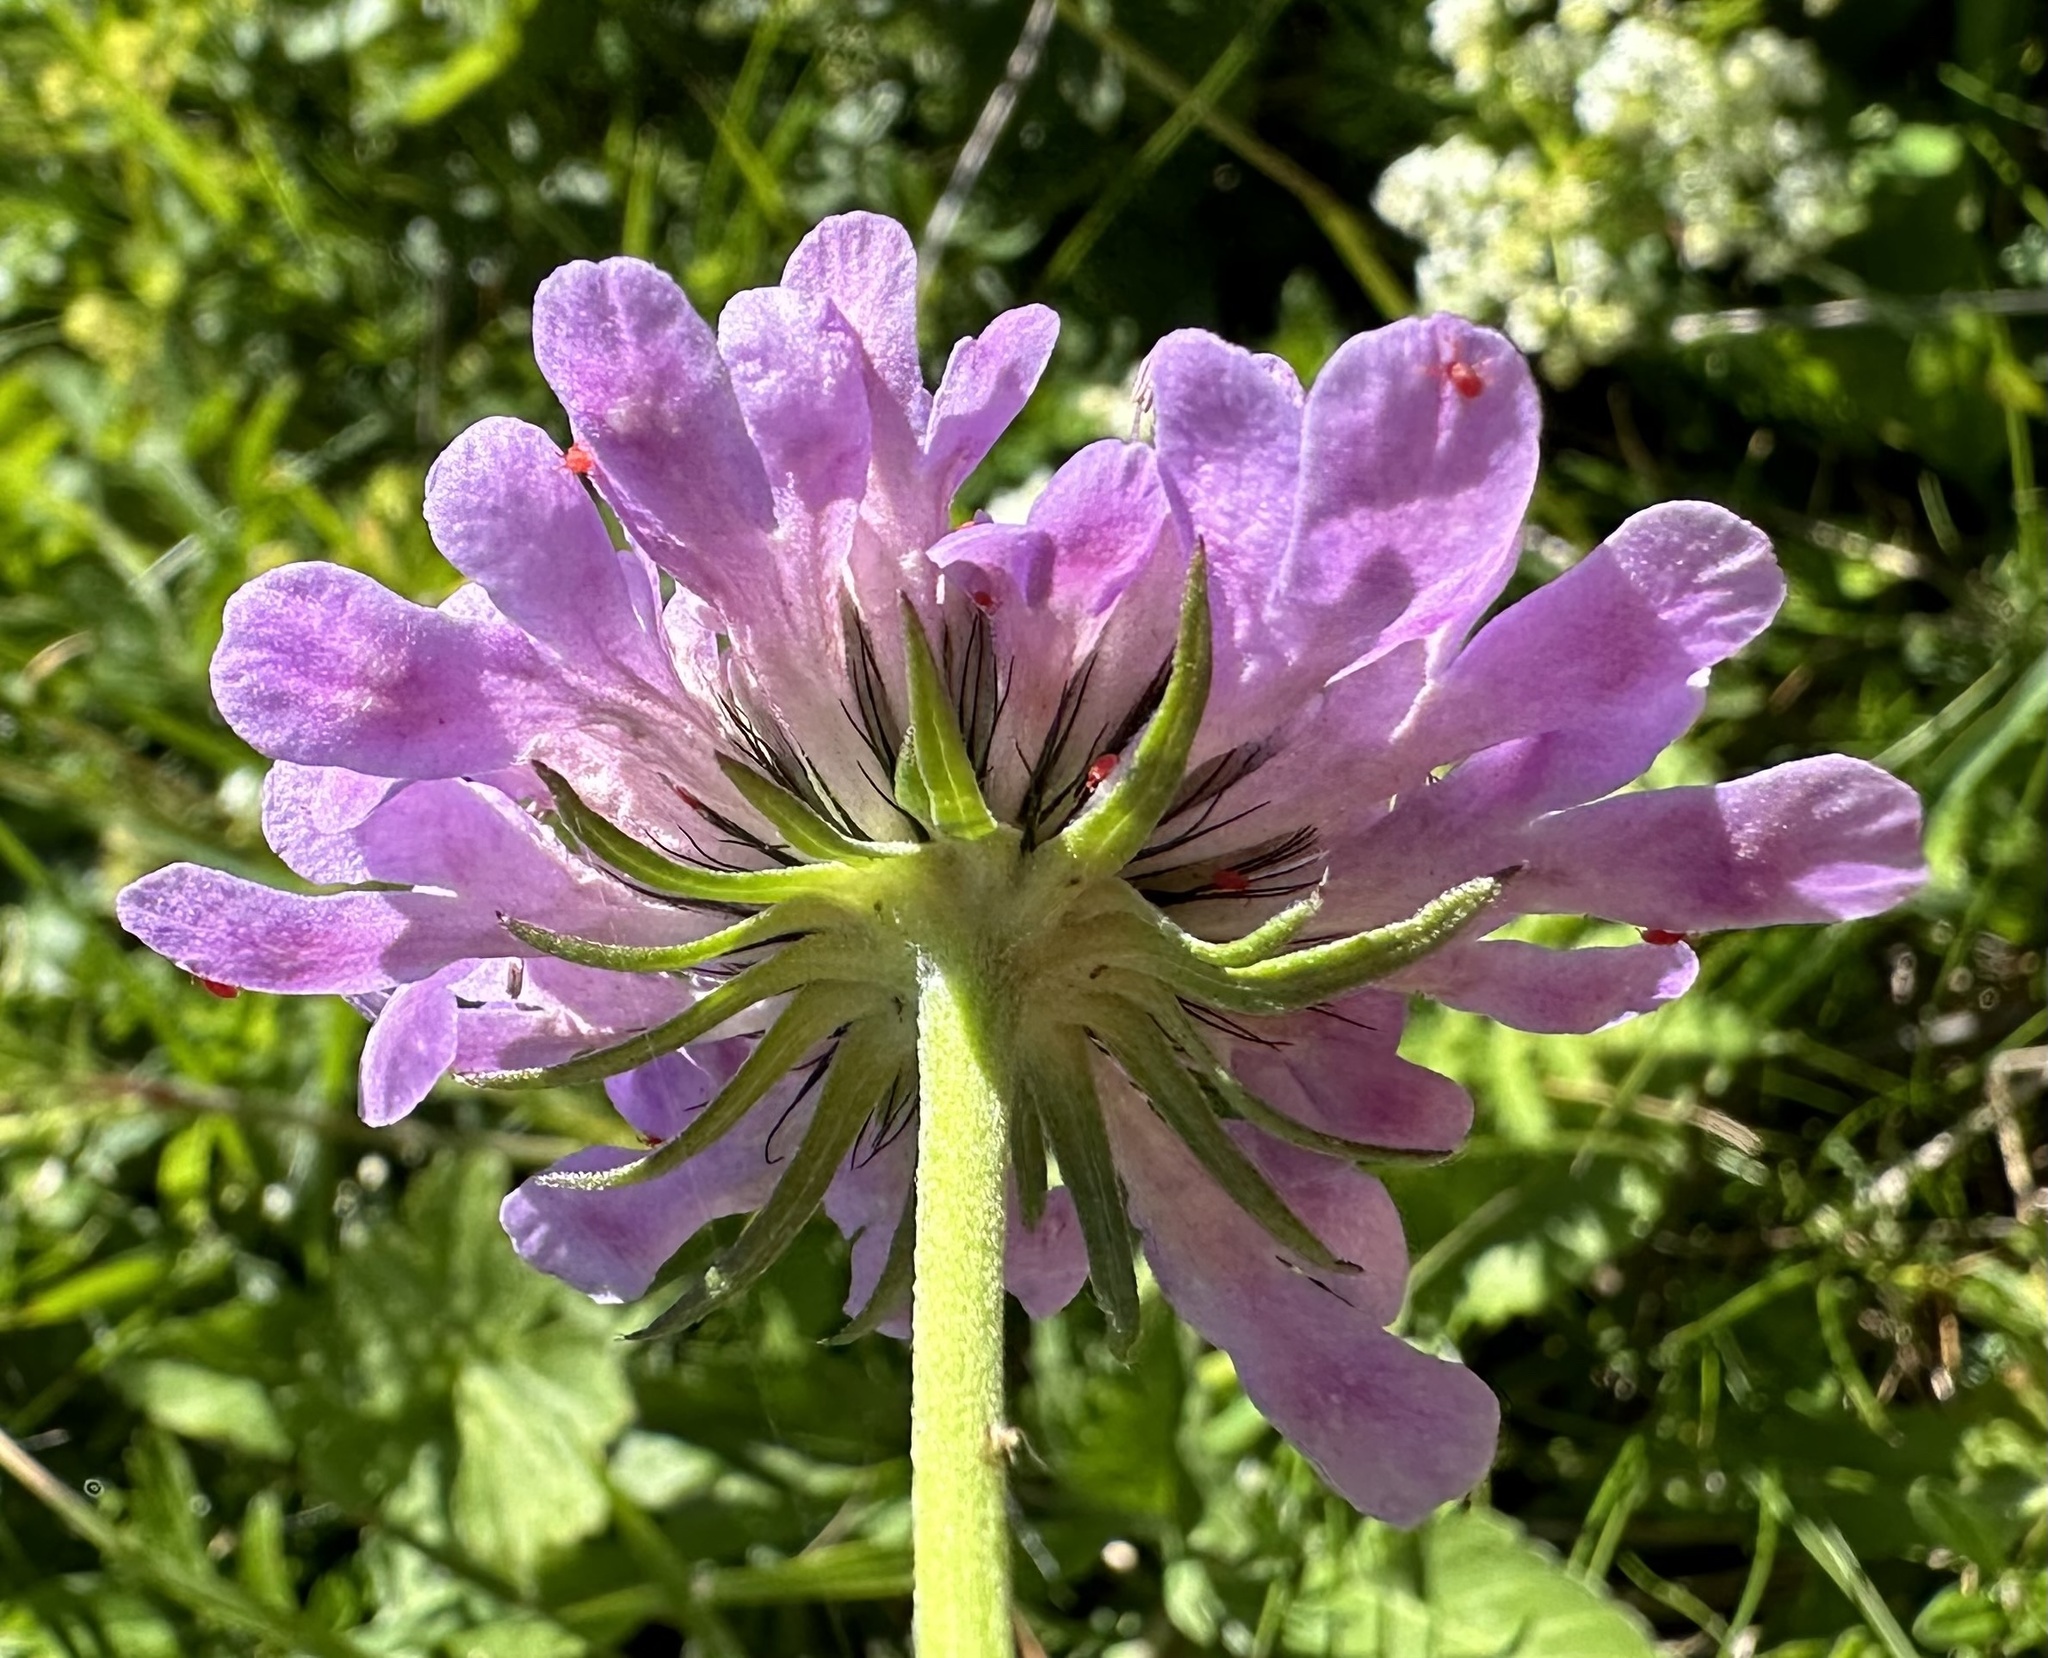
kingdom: Plantae
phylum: Tracheophyta
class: Magnoliopsida
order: Dipsacales
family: Caprifoliaceae
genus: Scabiosa
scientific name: Scabiosa lucida
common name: Shining scabious
